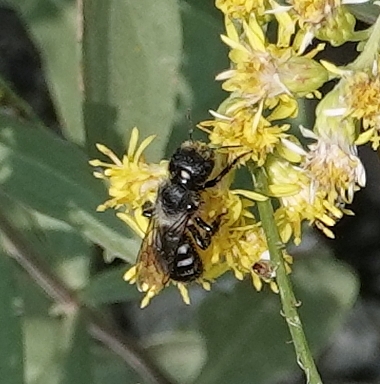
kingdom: Animalia
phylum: Arthropoda
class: Insecta
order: Hymenoptera
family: Megachilidae
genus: Alcidamea
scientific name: Alcidamea
